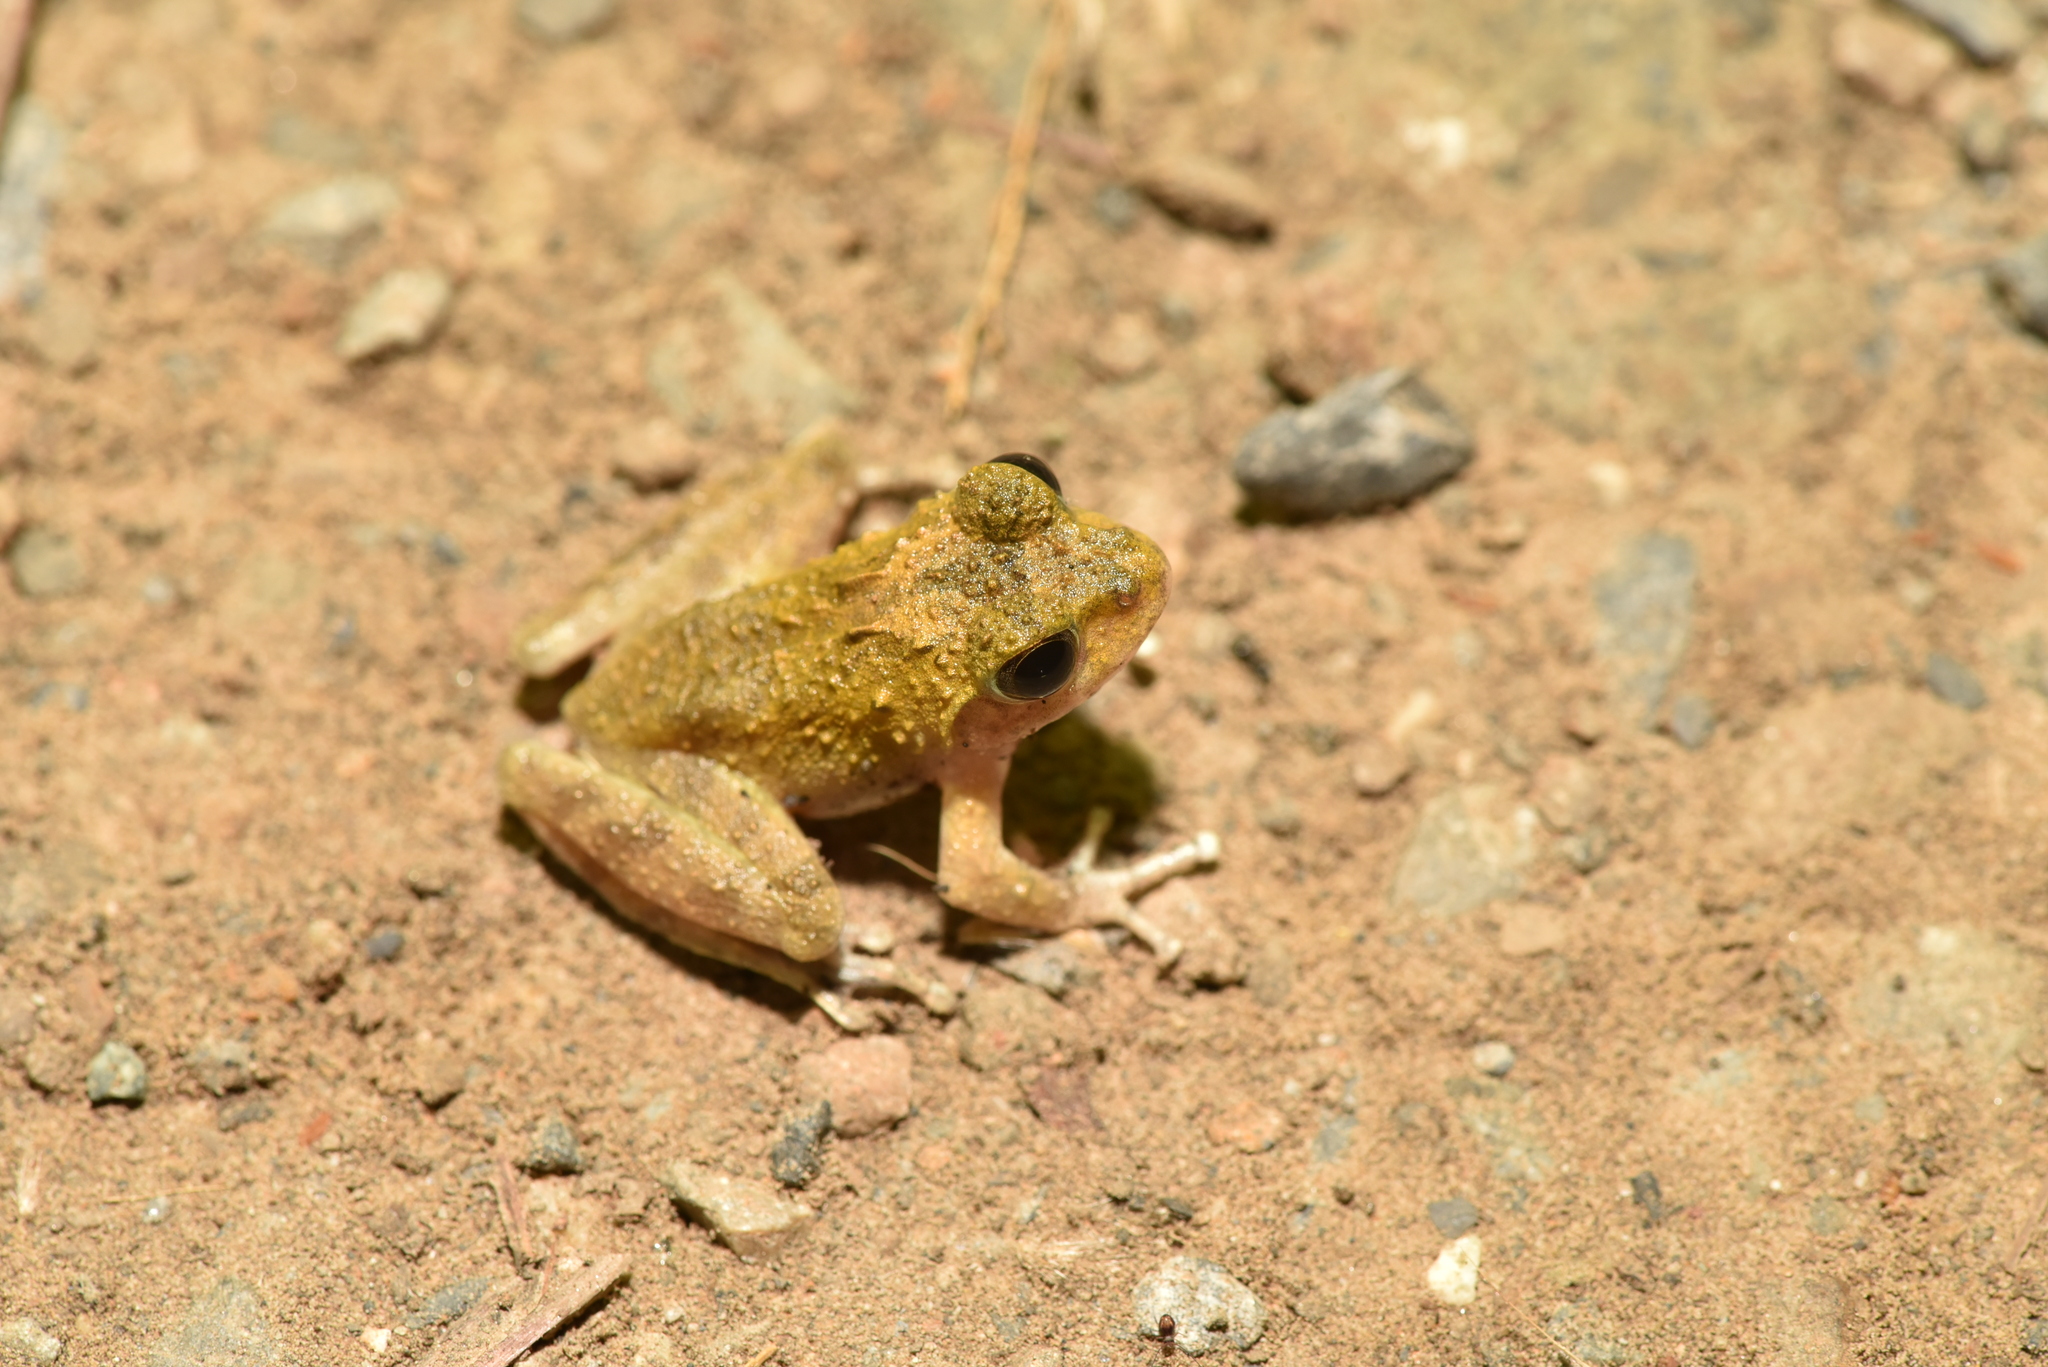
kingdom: Animalia
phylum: Chordata
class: Amphibia
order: Anura
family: Rhacophoridae
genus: Buergeria
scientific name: Buergeria choui
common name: Yaeyama kajika frog
